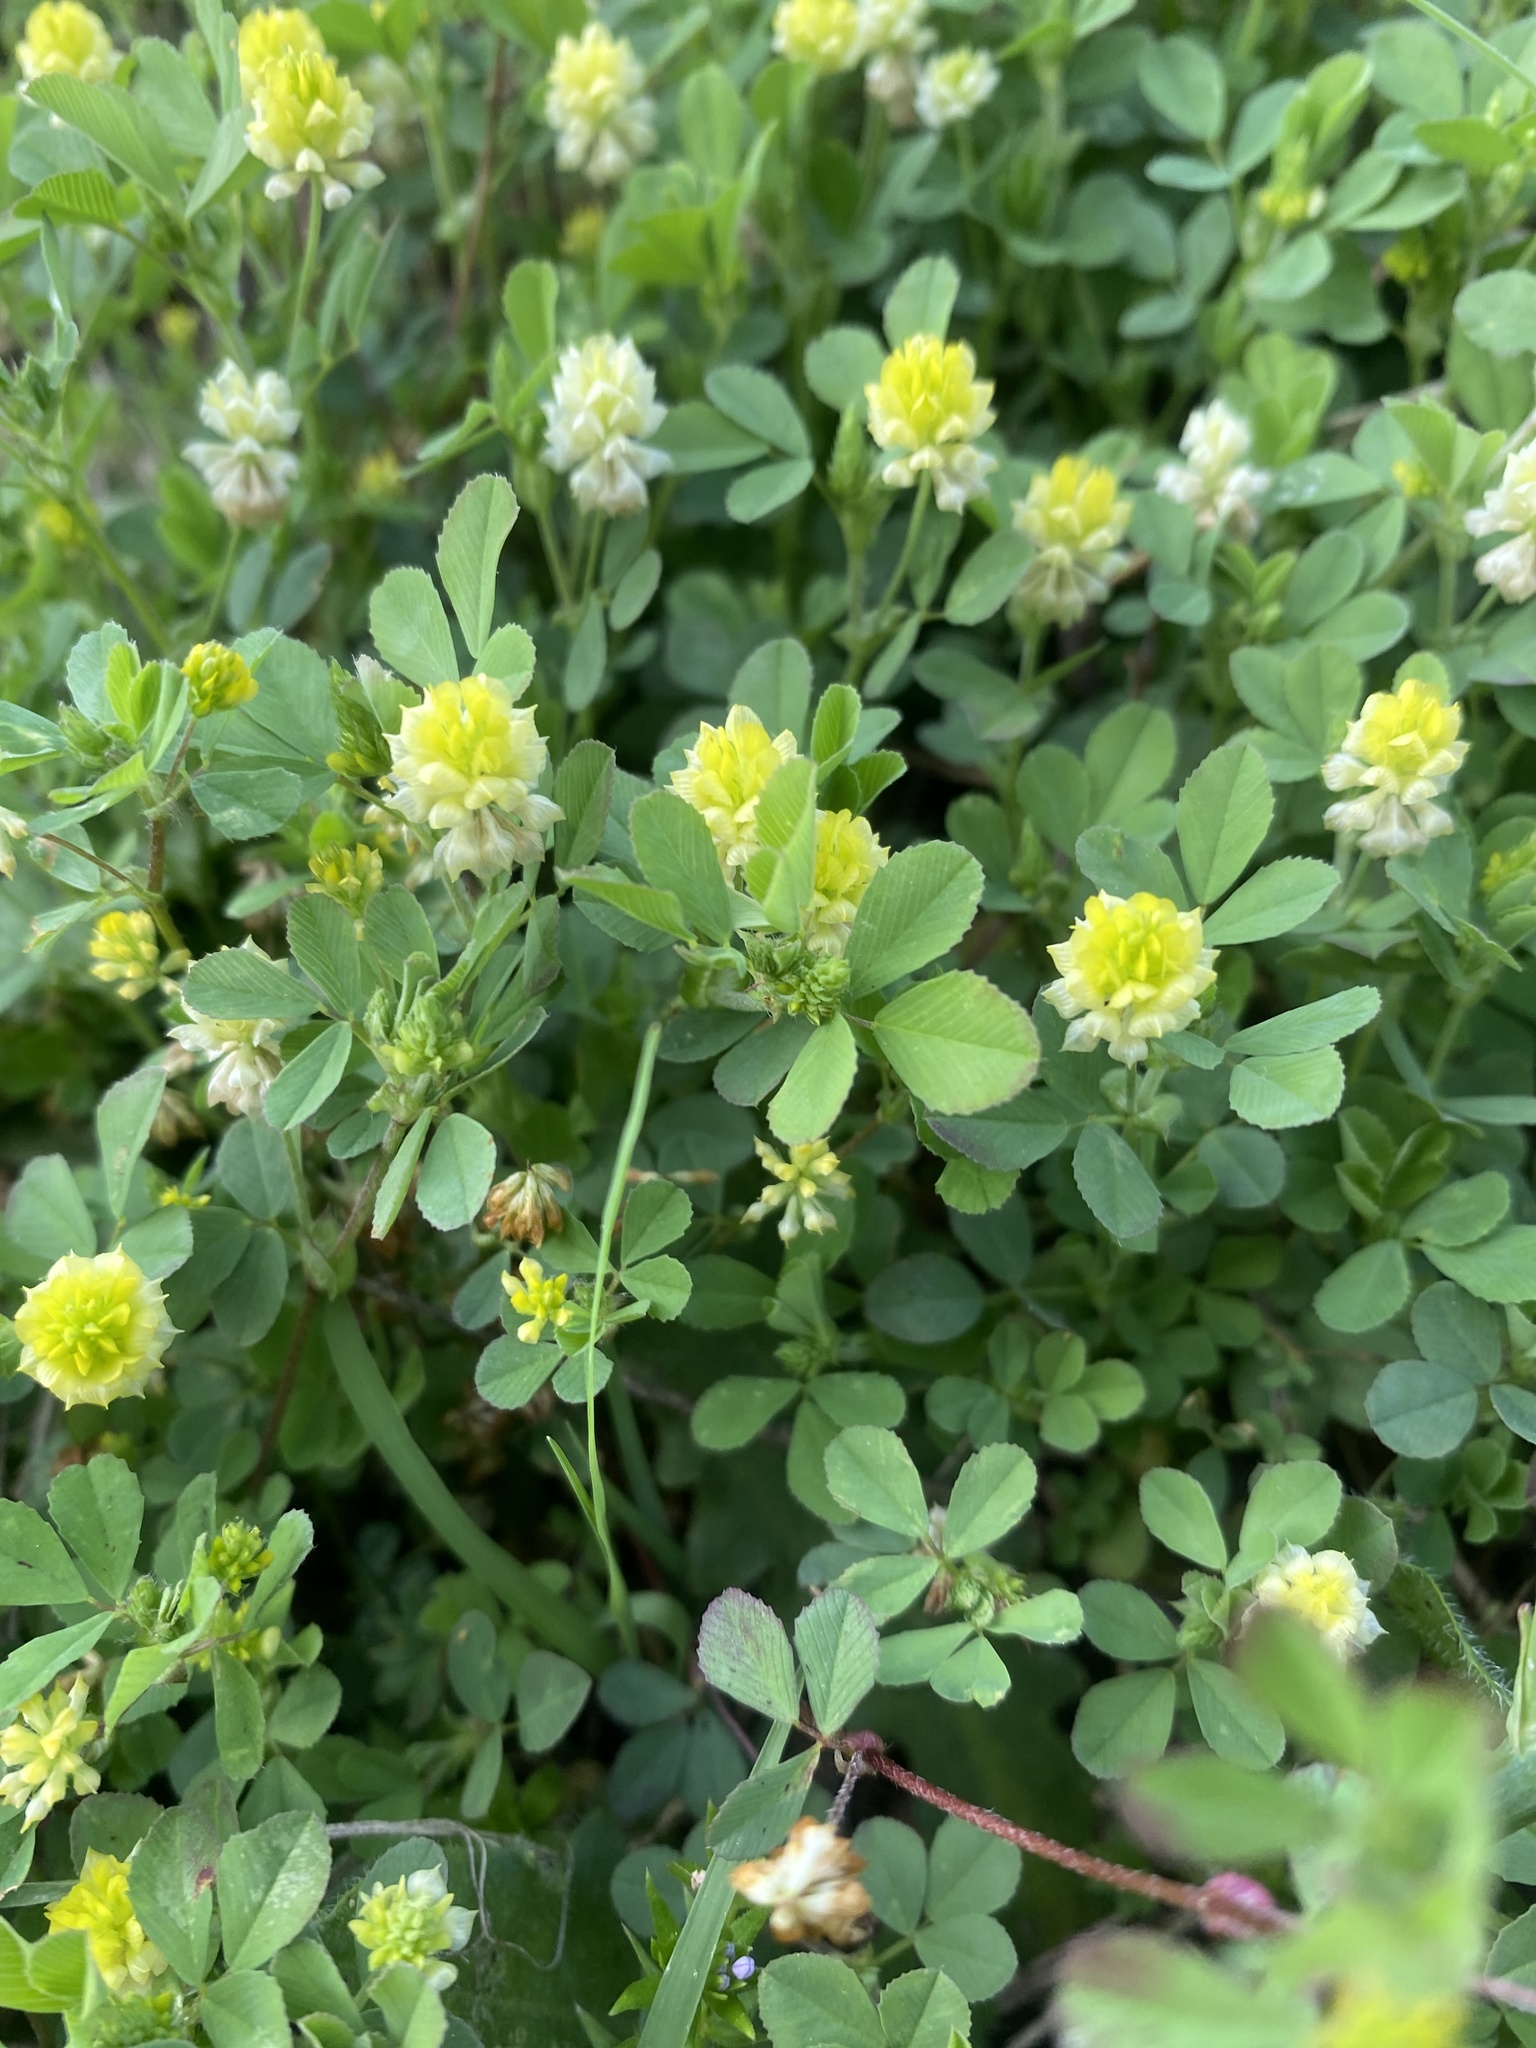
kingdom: Plantae
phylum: Tracheophyta
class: Magnoliopsida
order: Fabales
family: Fabaceae
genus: Trifolium
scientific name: Trifolium campestre
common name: Field clover
